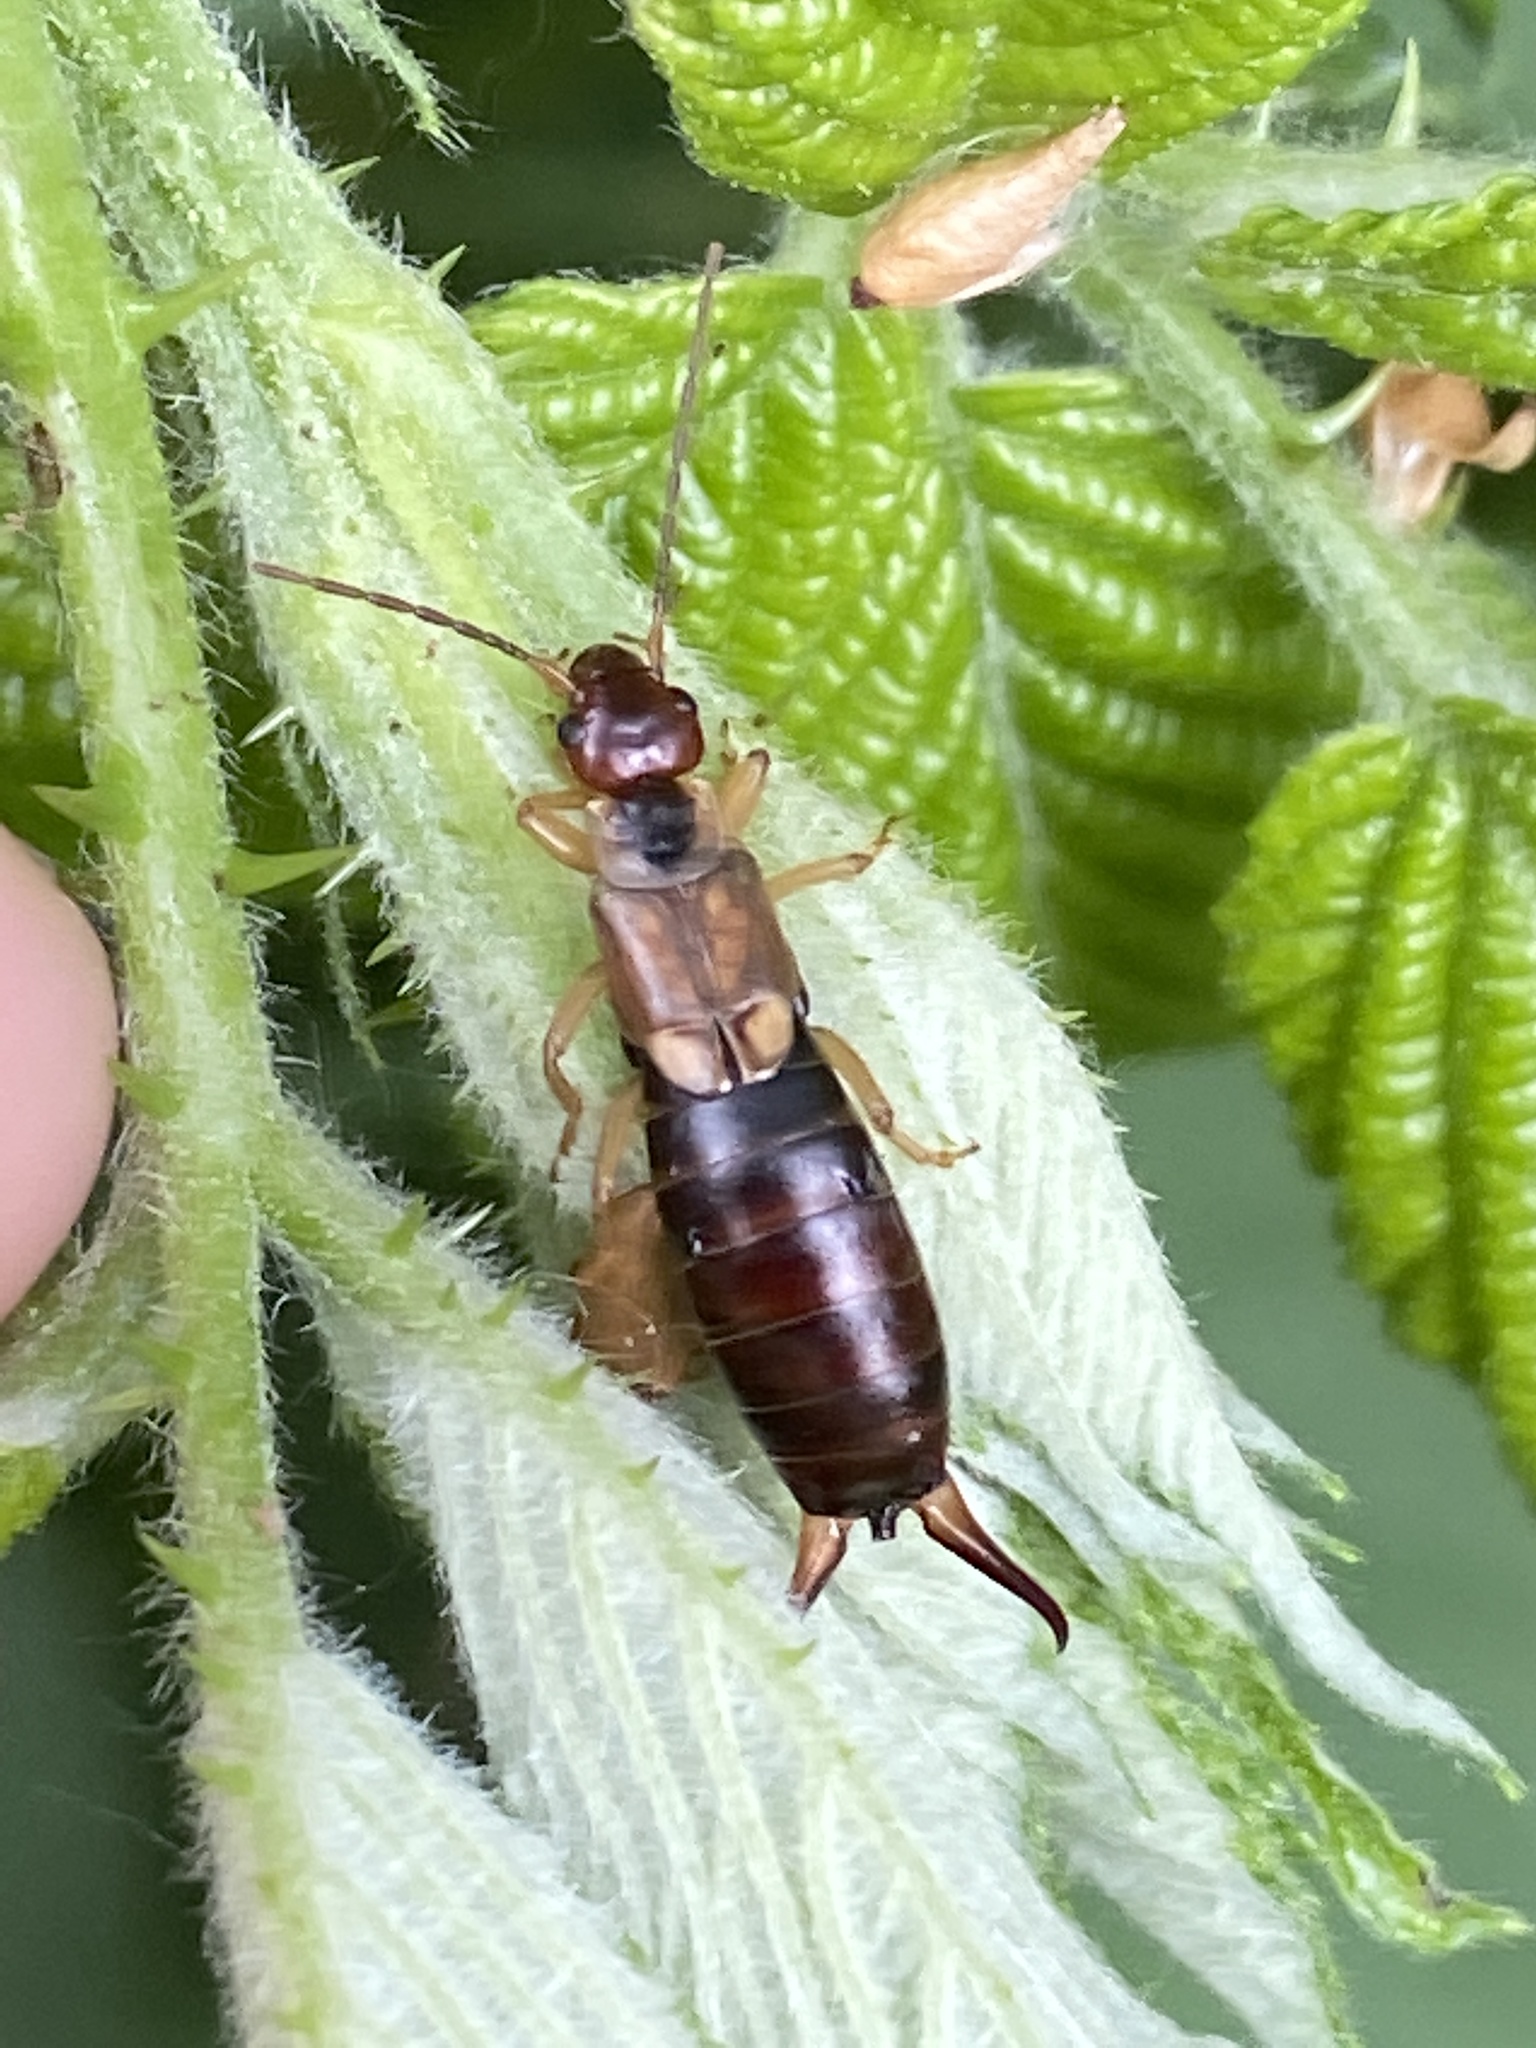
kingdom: Animalia
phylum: Arthropoda
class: Insecta
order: Dermaptera
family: Forficulidae
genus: Forficula
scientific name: Forficula
